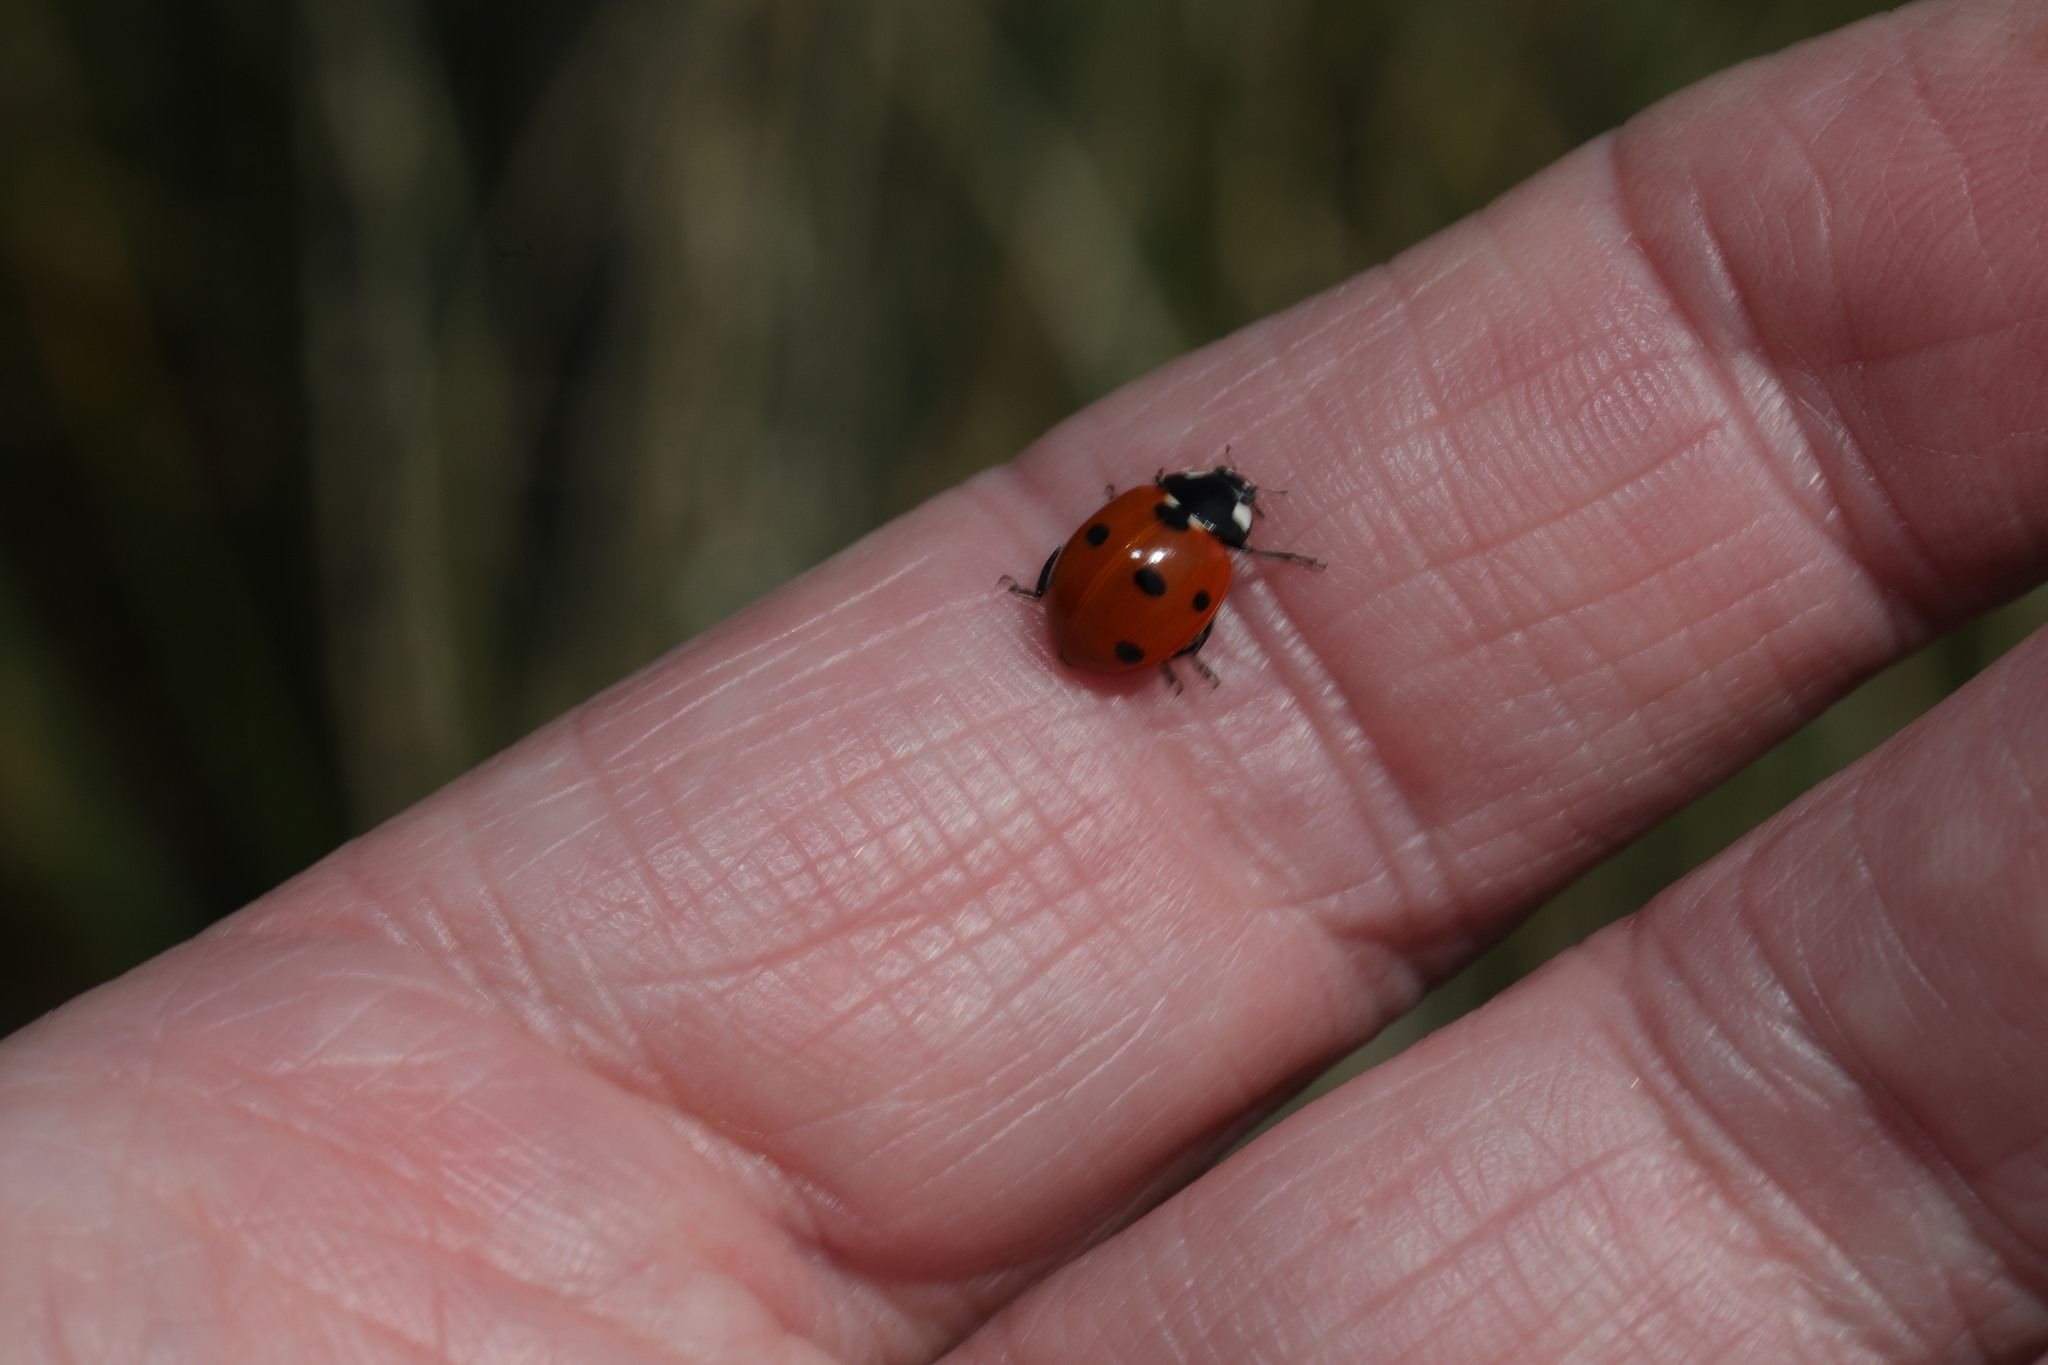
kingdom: Animalia
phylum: Arthropoda
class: Insecta
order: Coleoptera
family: Coccinellidae
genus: Coccinella
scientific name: Coccinella septempunctata
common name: Sevenspotted lady beetle
